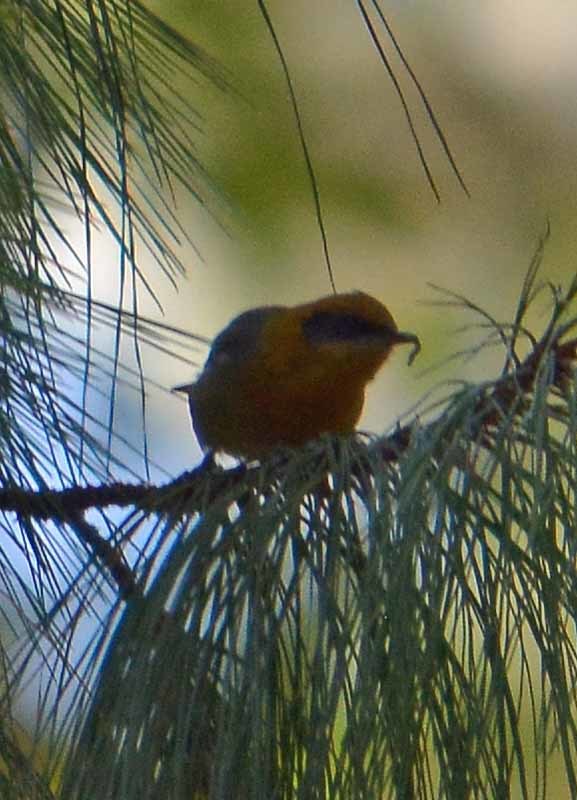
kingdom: Animalia
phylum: Chordata
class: Aves
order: Passeriformes
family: Peucedramidae
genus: Peucedramus
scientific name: Peucedramus taeniatus
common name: Olive warbler
